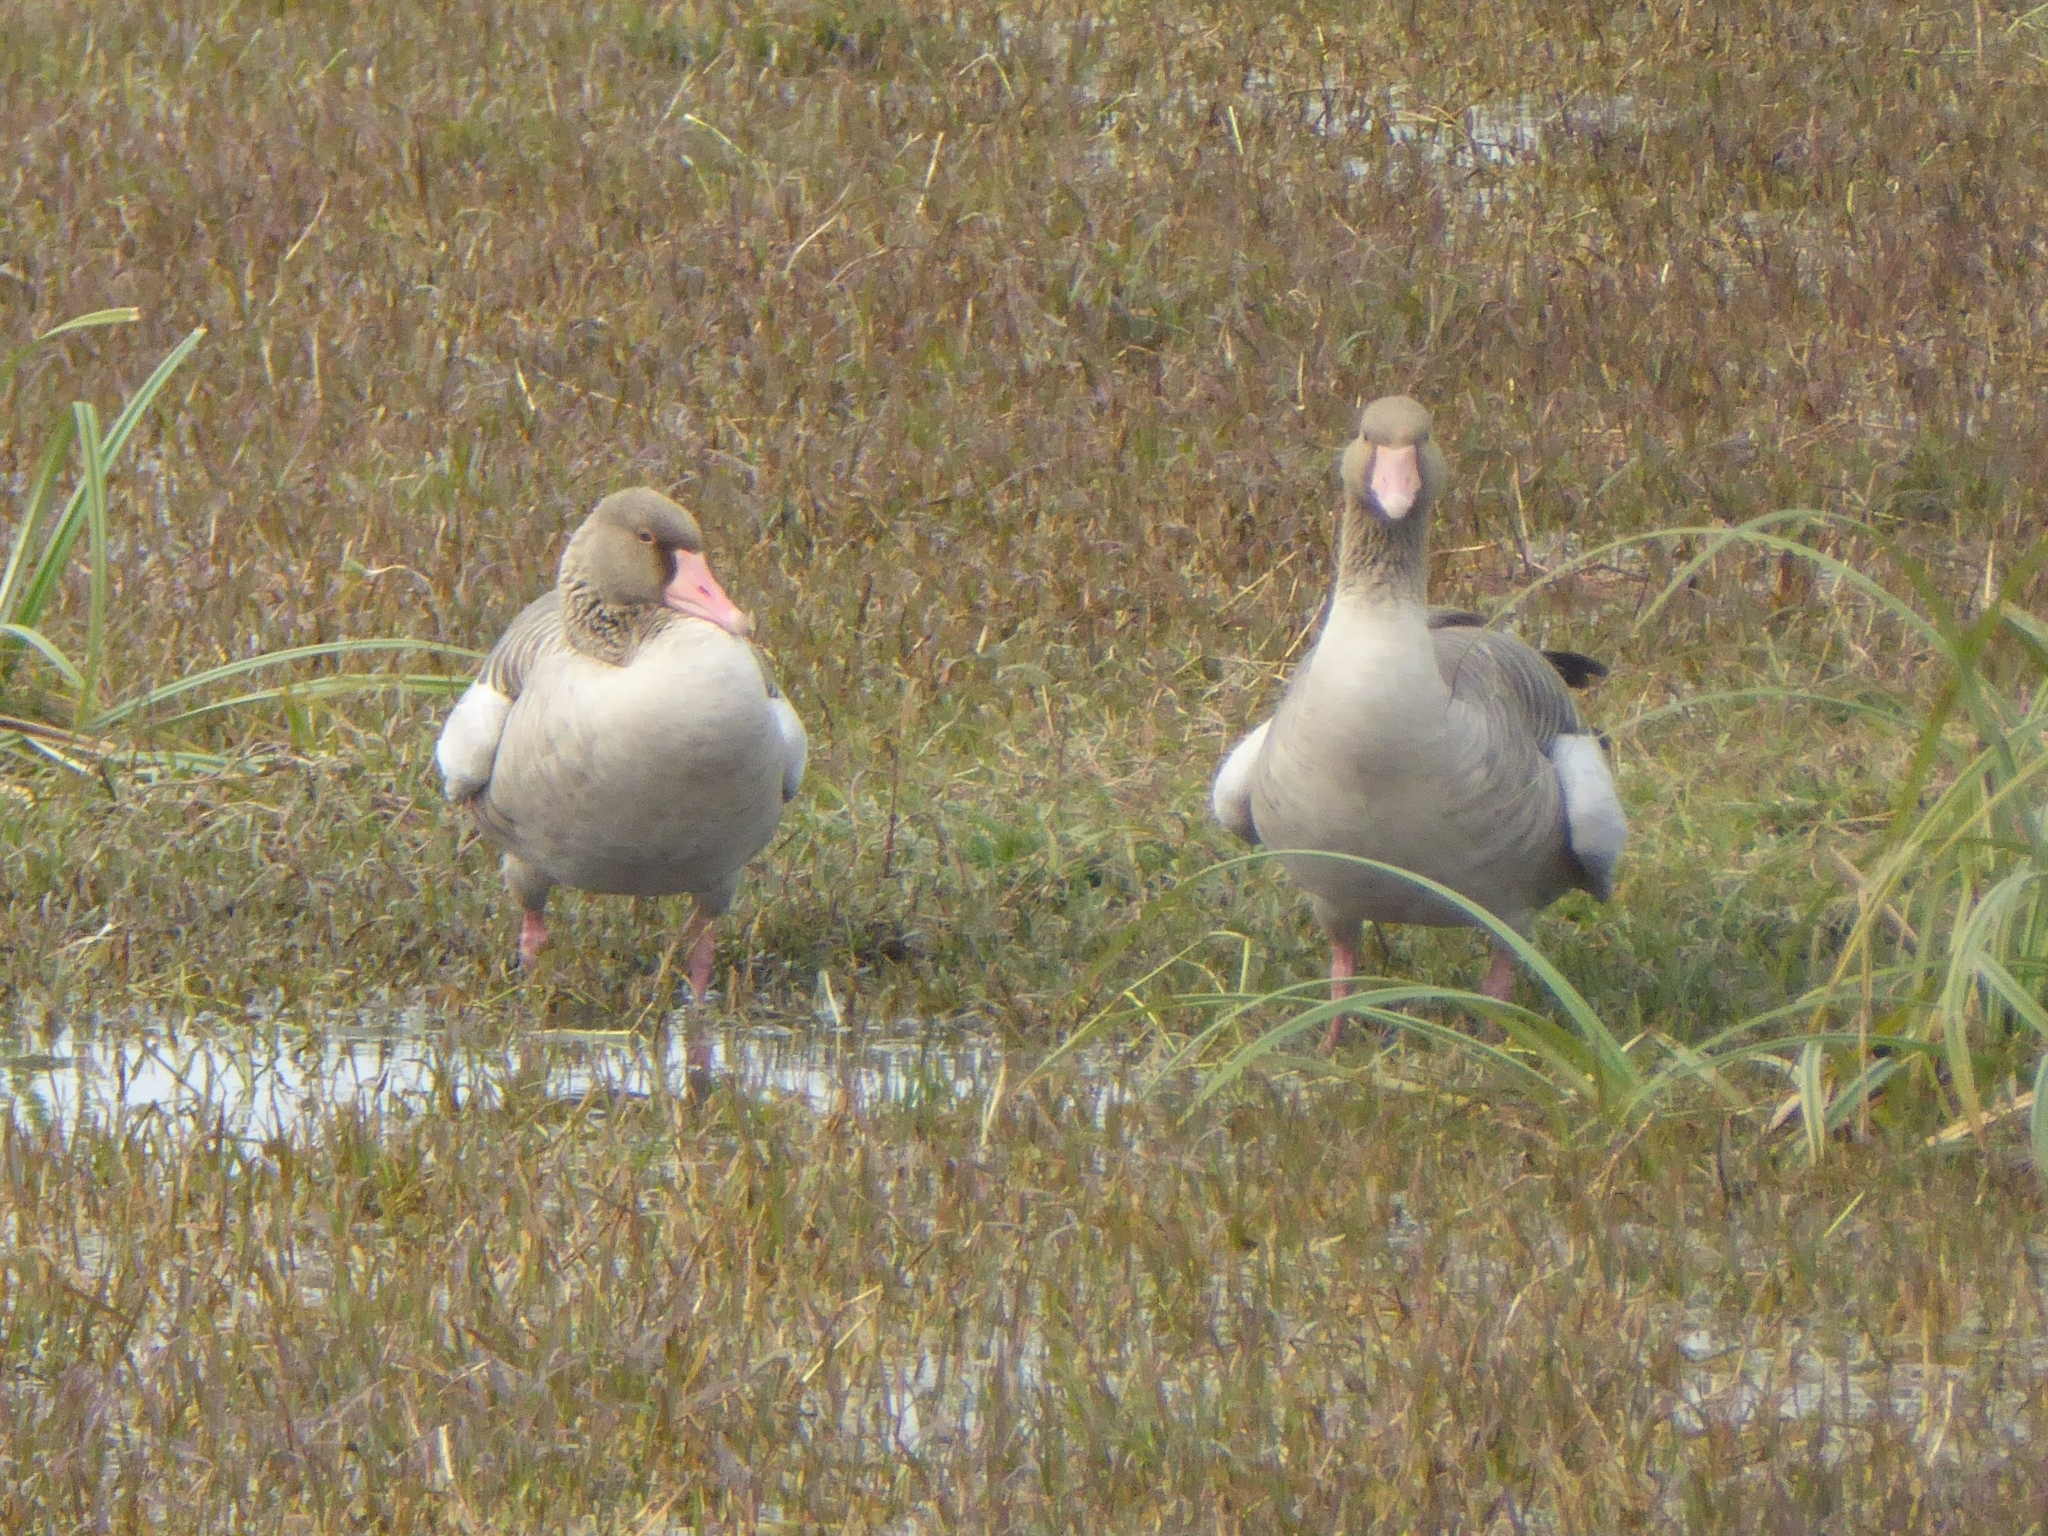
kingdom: Animalia
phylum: Chordata
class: Aves
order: Anseriformes
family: Anatidae
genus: Anser
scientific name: Anser anser
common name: Greylag goose
